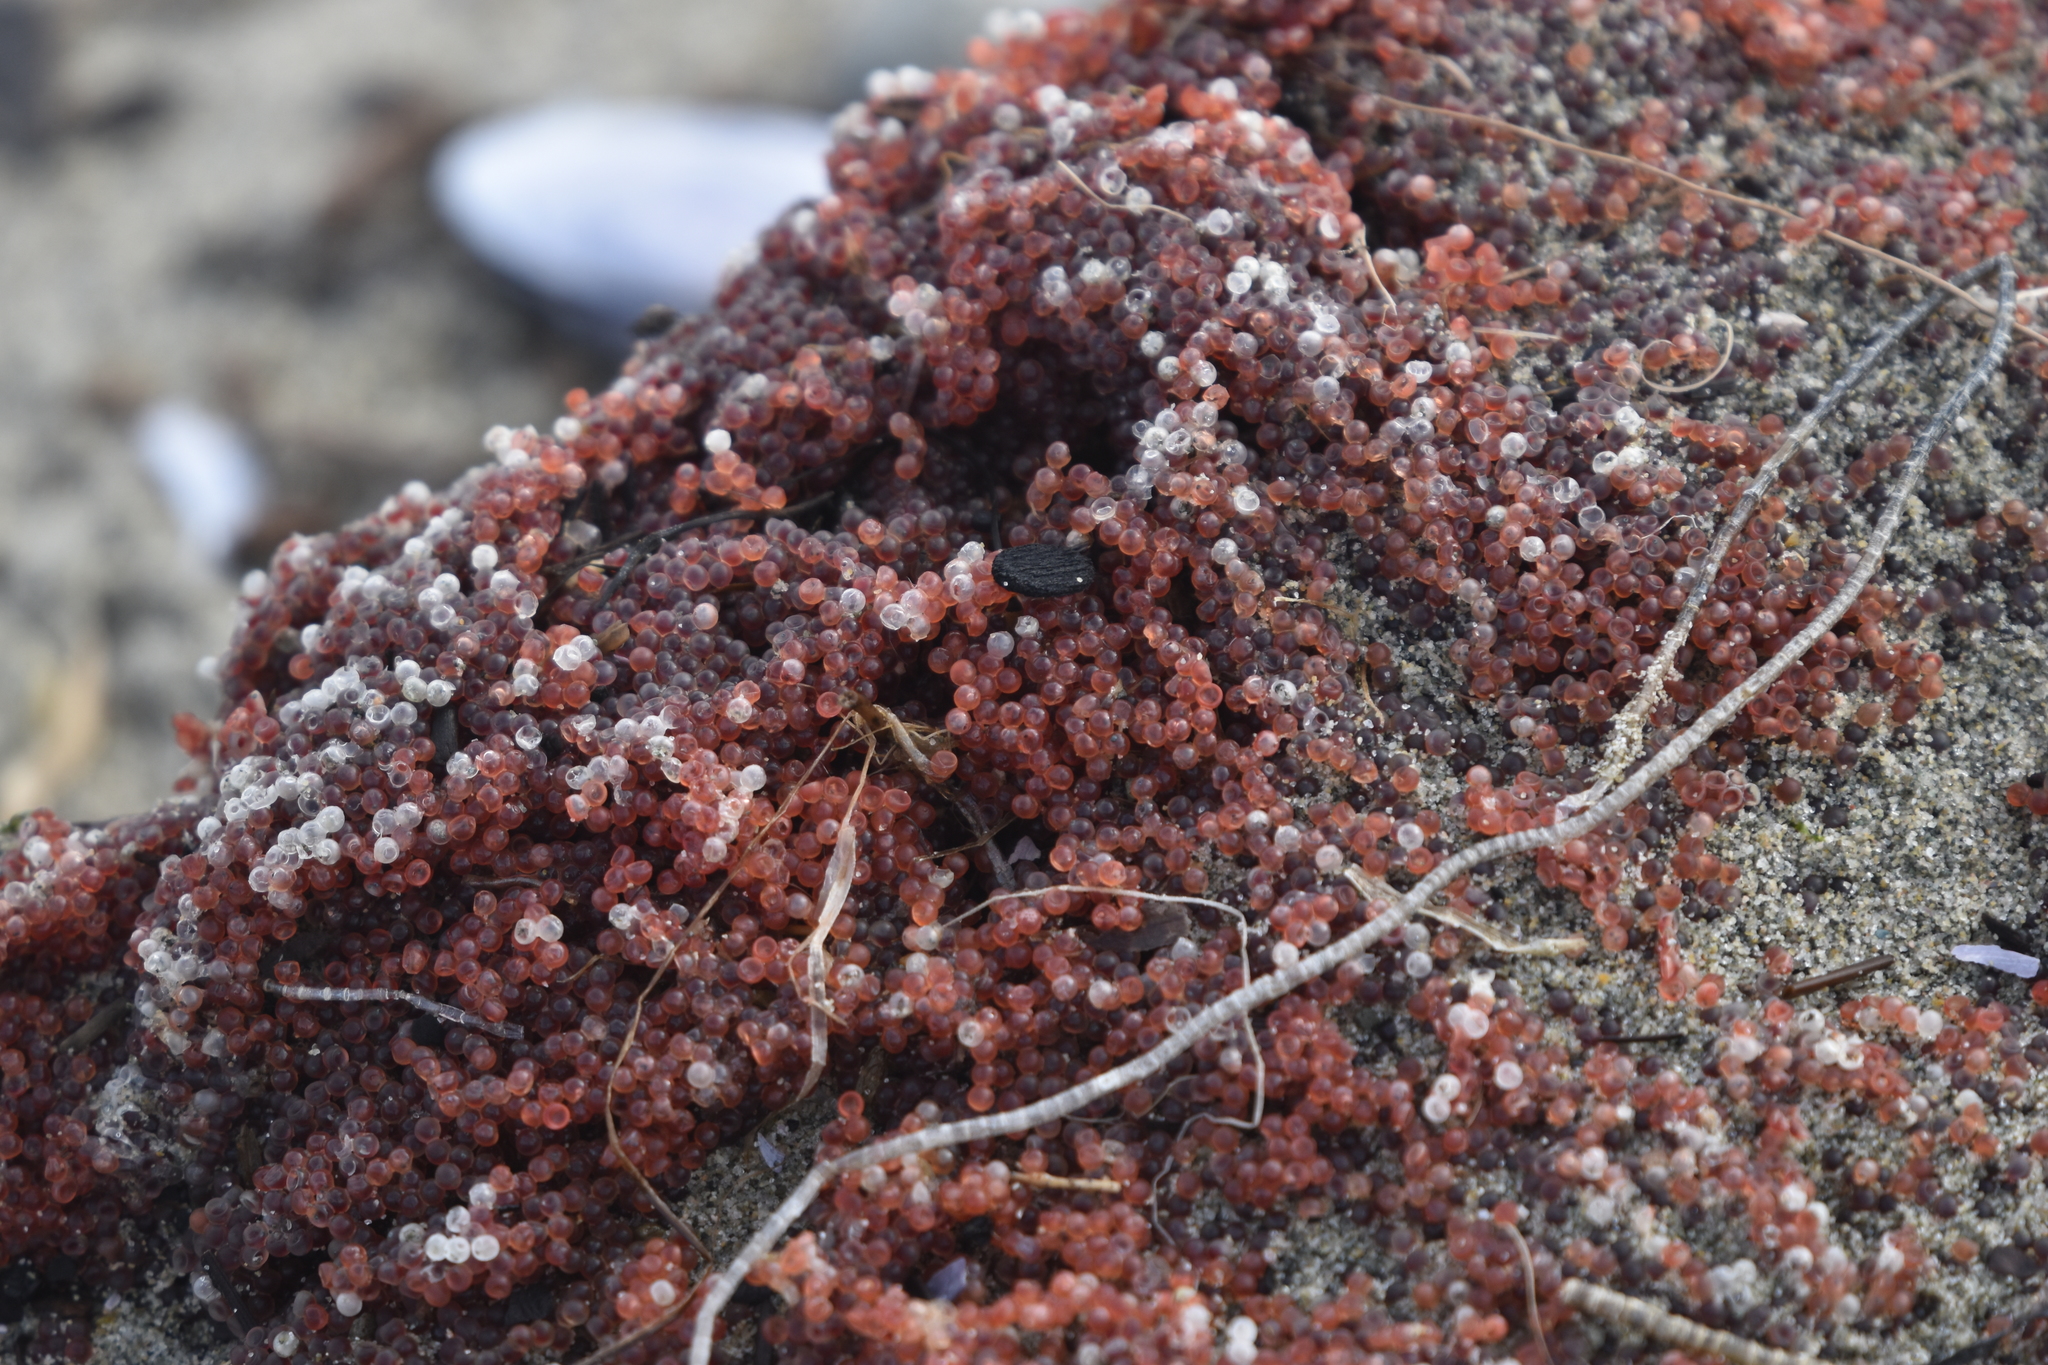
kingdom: Animalia
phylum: Chordata
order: Clupeiformes
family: Clupeidae
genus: Clupea
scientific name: Clupea pallasii
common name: Pacific herring
